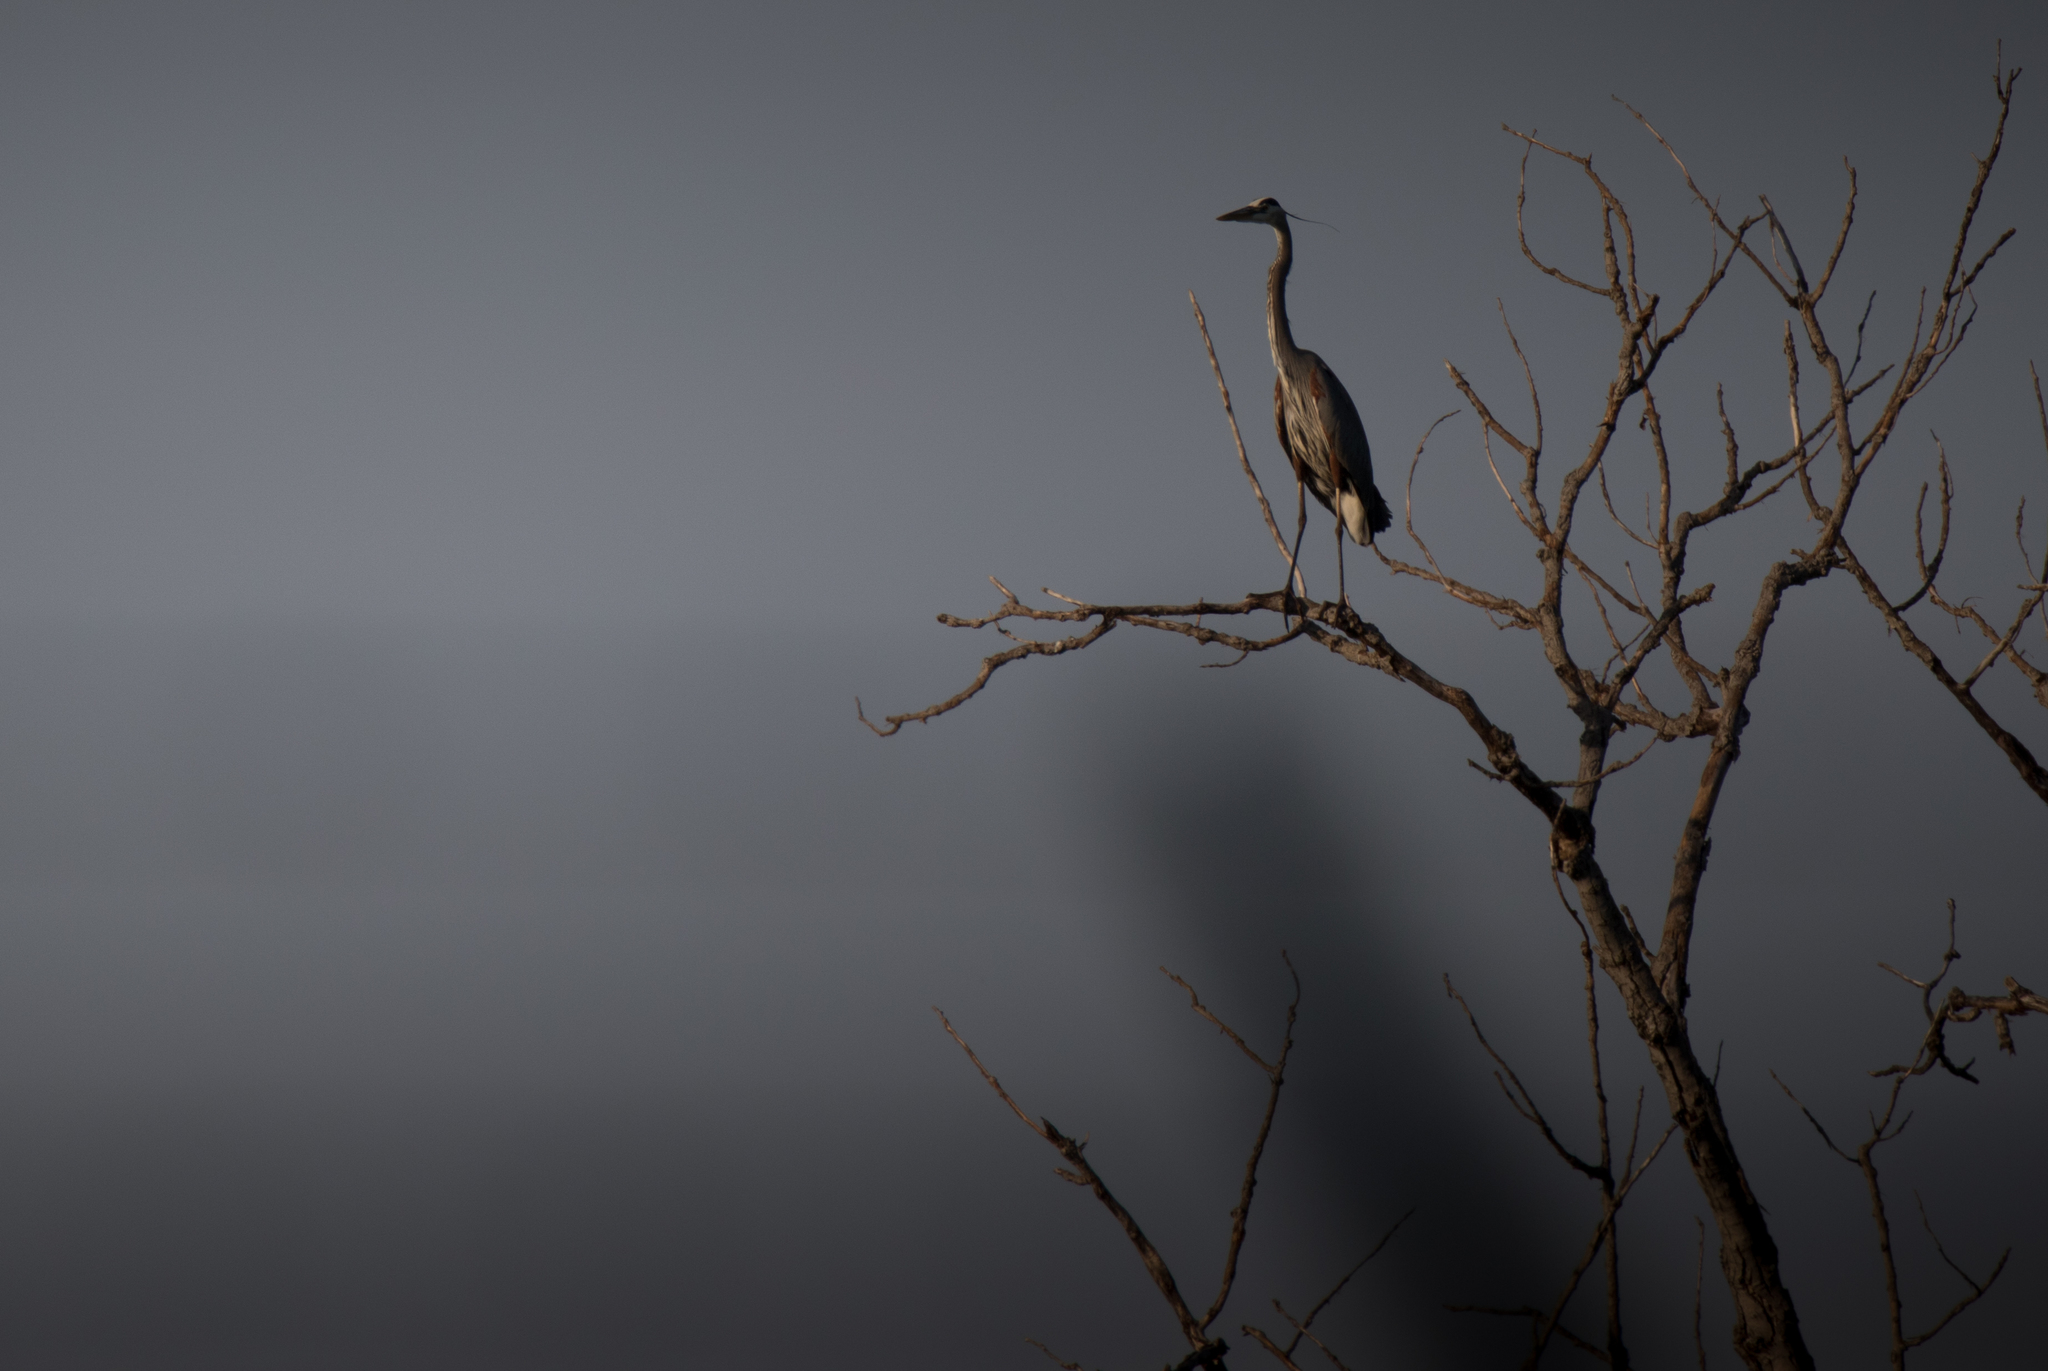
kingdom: Animalia
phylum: Chordata
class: Aves
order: Pelecaniformes
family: Ardeidae
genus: Ardea
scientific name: Ardea herodias
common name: Great blue heron
